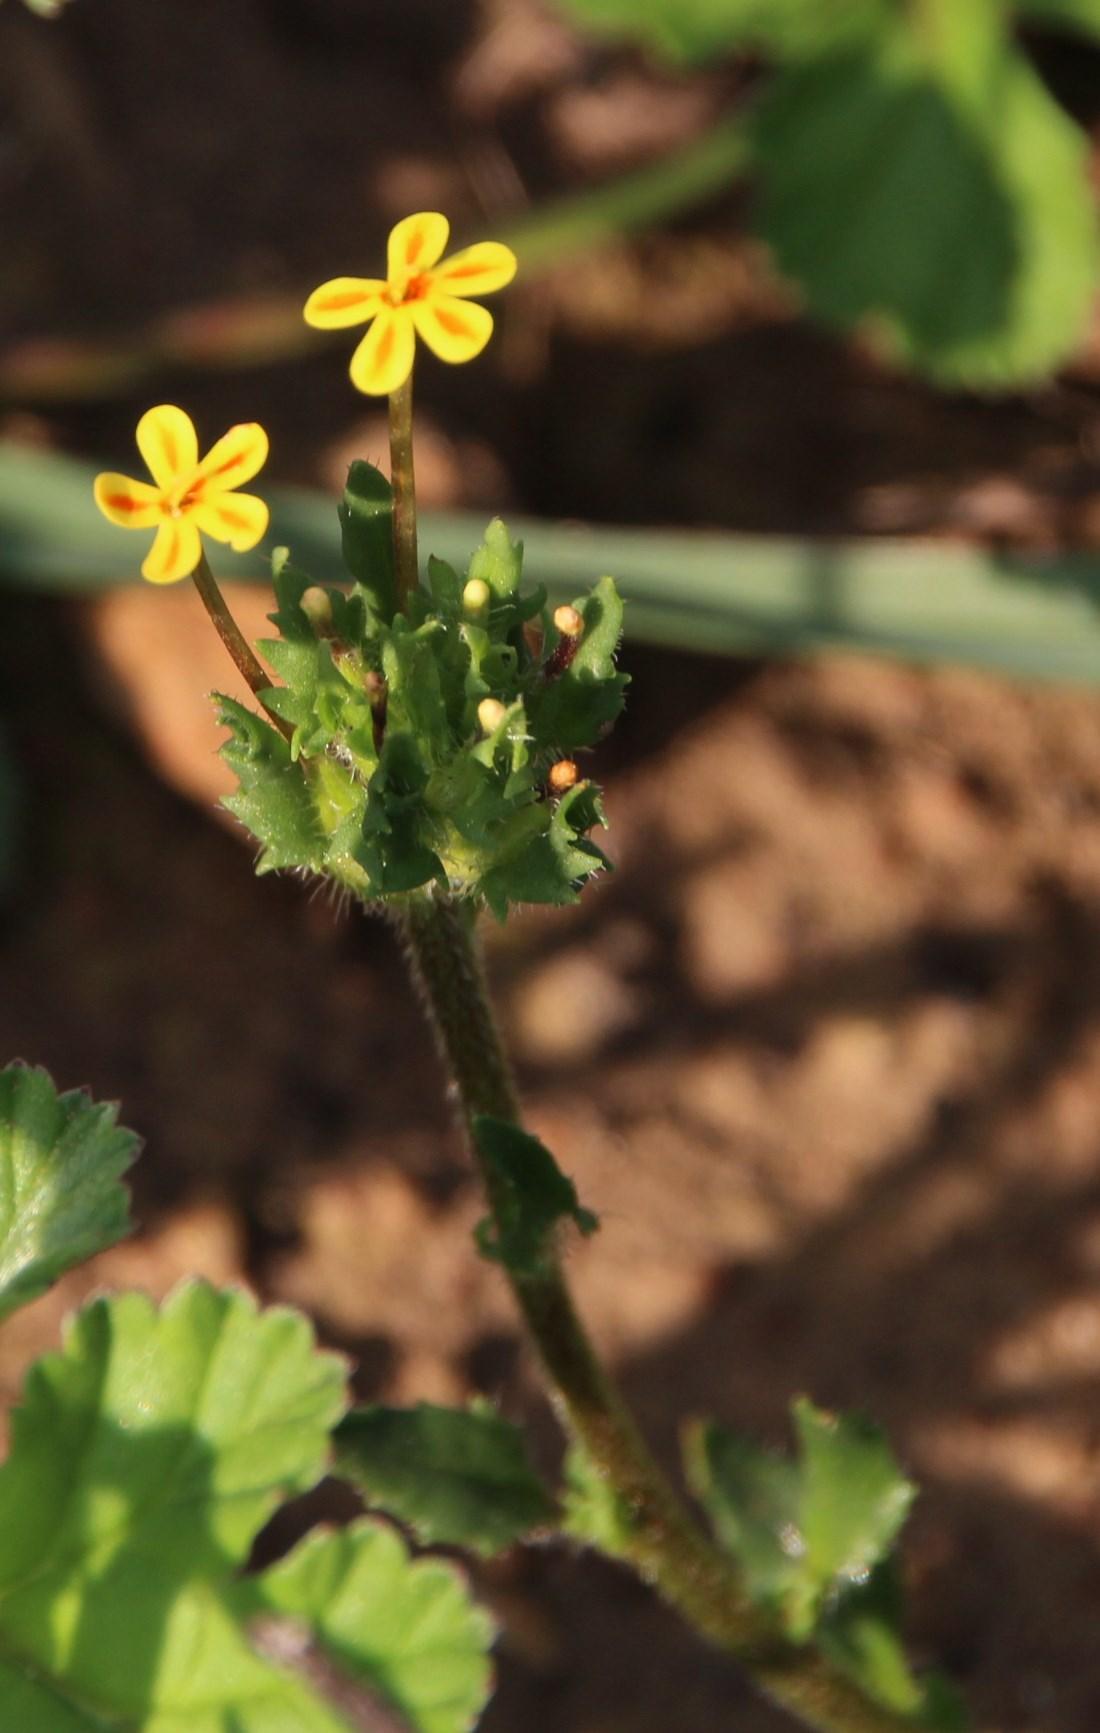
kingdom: Plantae
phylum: Tracheophyta
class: Magnoliopsida
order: Lamiales
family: Scrophulariaceae
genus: Zaluzianskya
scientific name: Zaluzianskya divaricata
